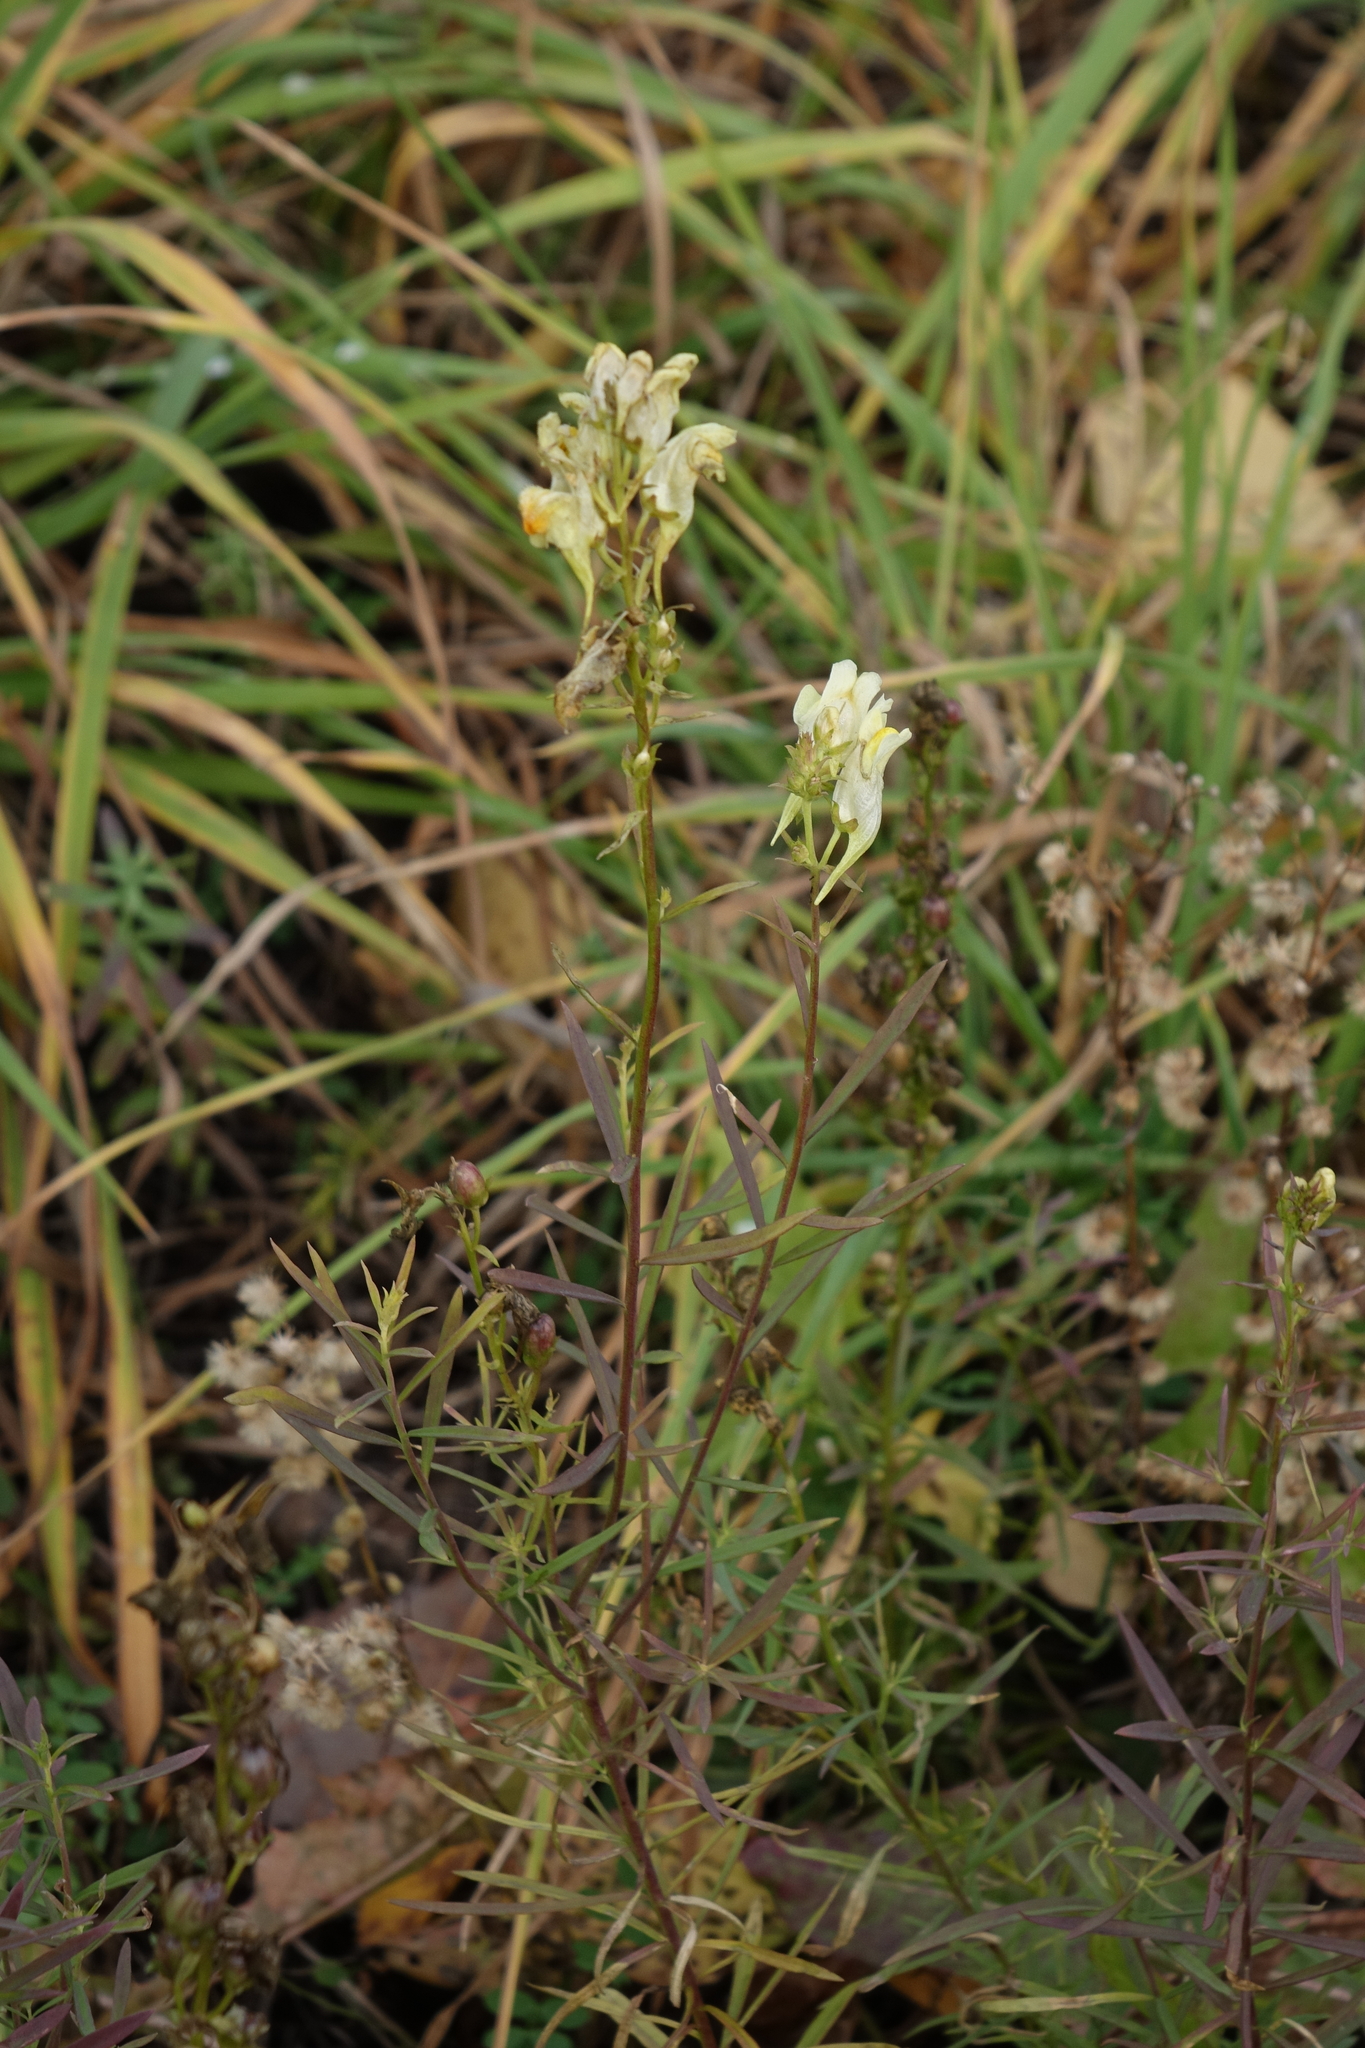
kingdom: Plantae
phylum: Tracheophyta
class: Magnoliopsida
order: Lamiales
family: Plantaginaceae
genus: Linaria
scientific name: Linaria vulgaris
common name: Butter and eggs
